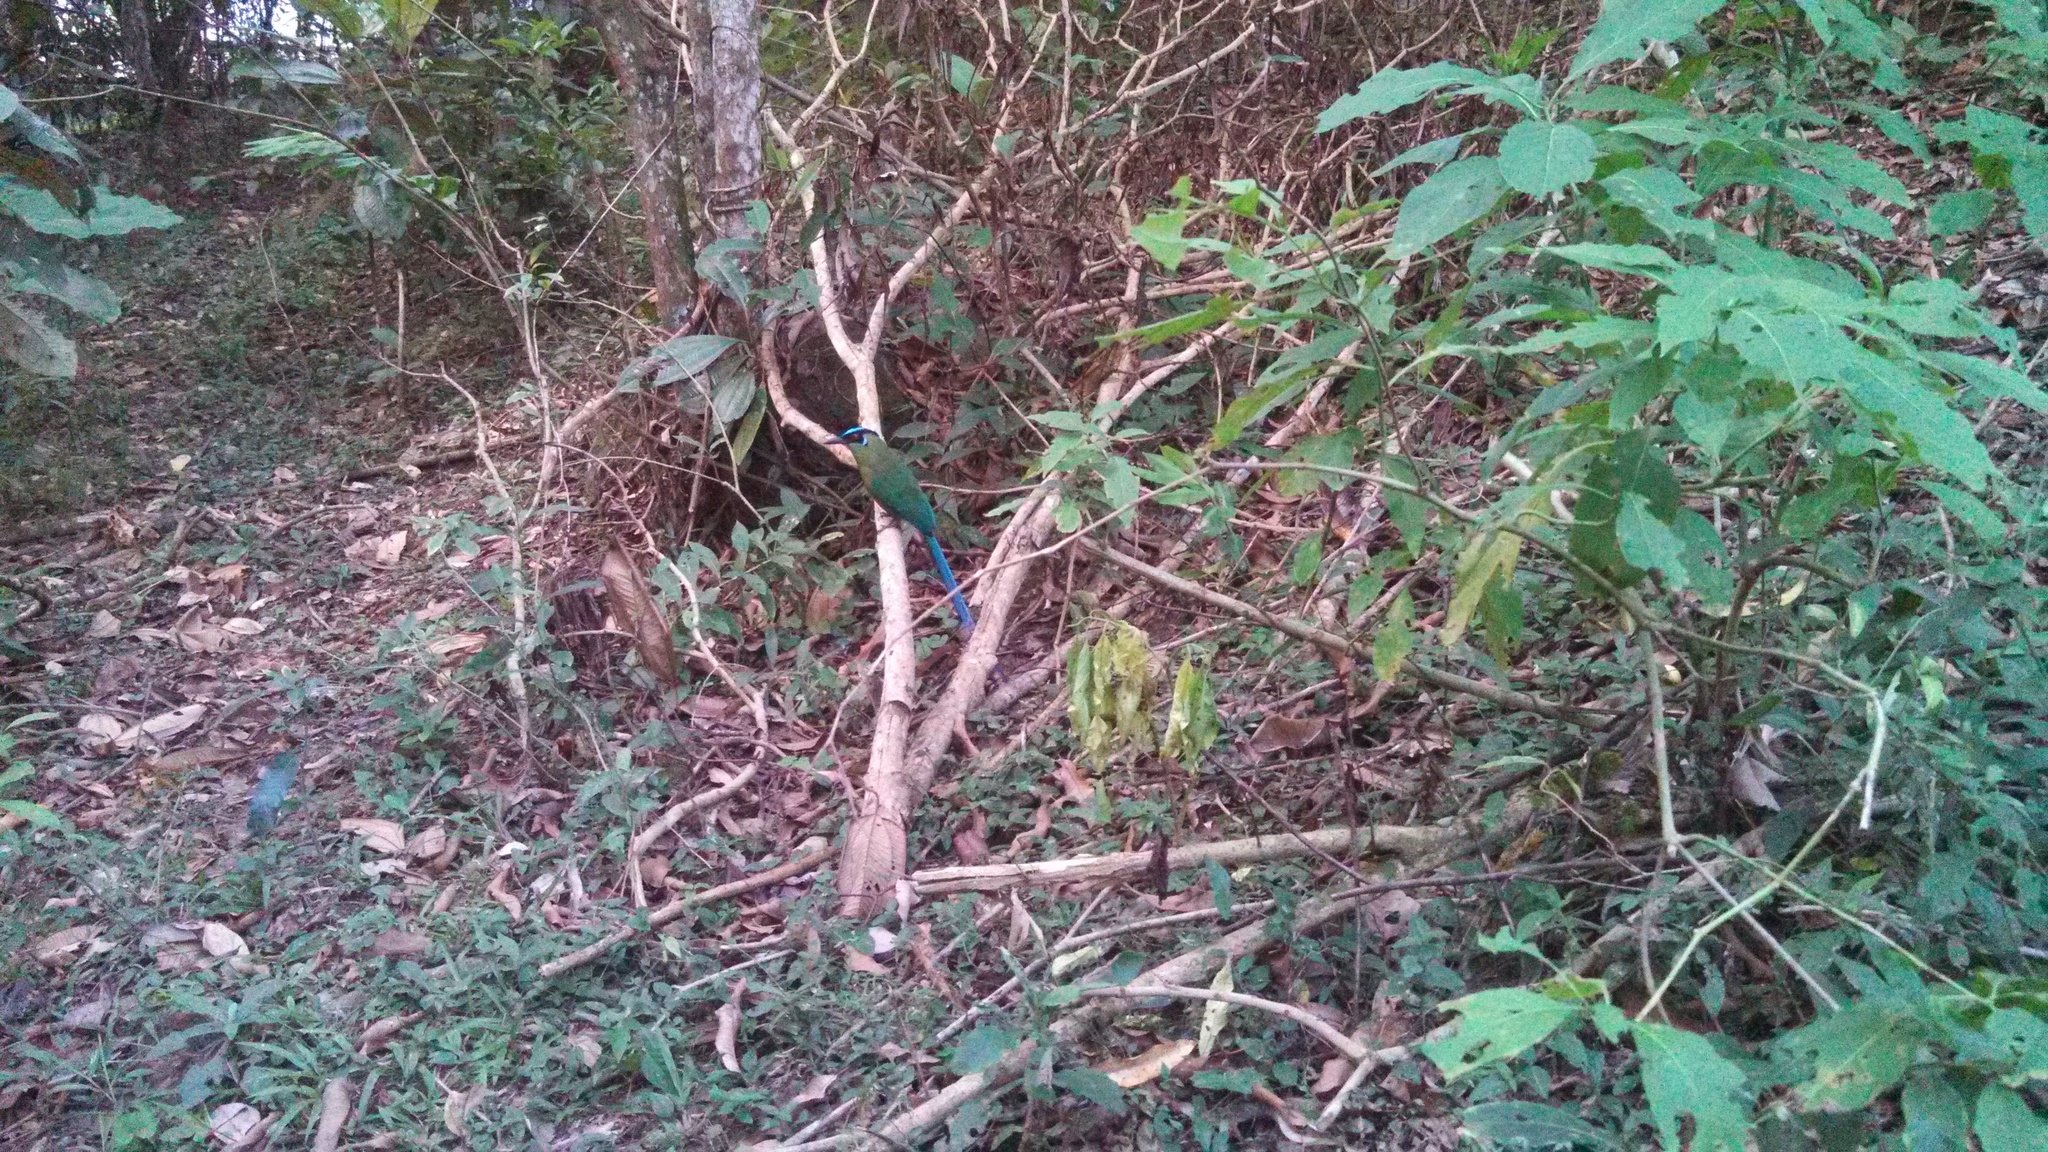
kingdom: Animalia
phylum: Chordata
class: Aves
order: Coraciiformes
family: Momotidae
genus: Momotus
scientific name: Momotus aequatorialis
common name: Andean motmot
